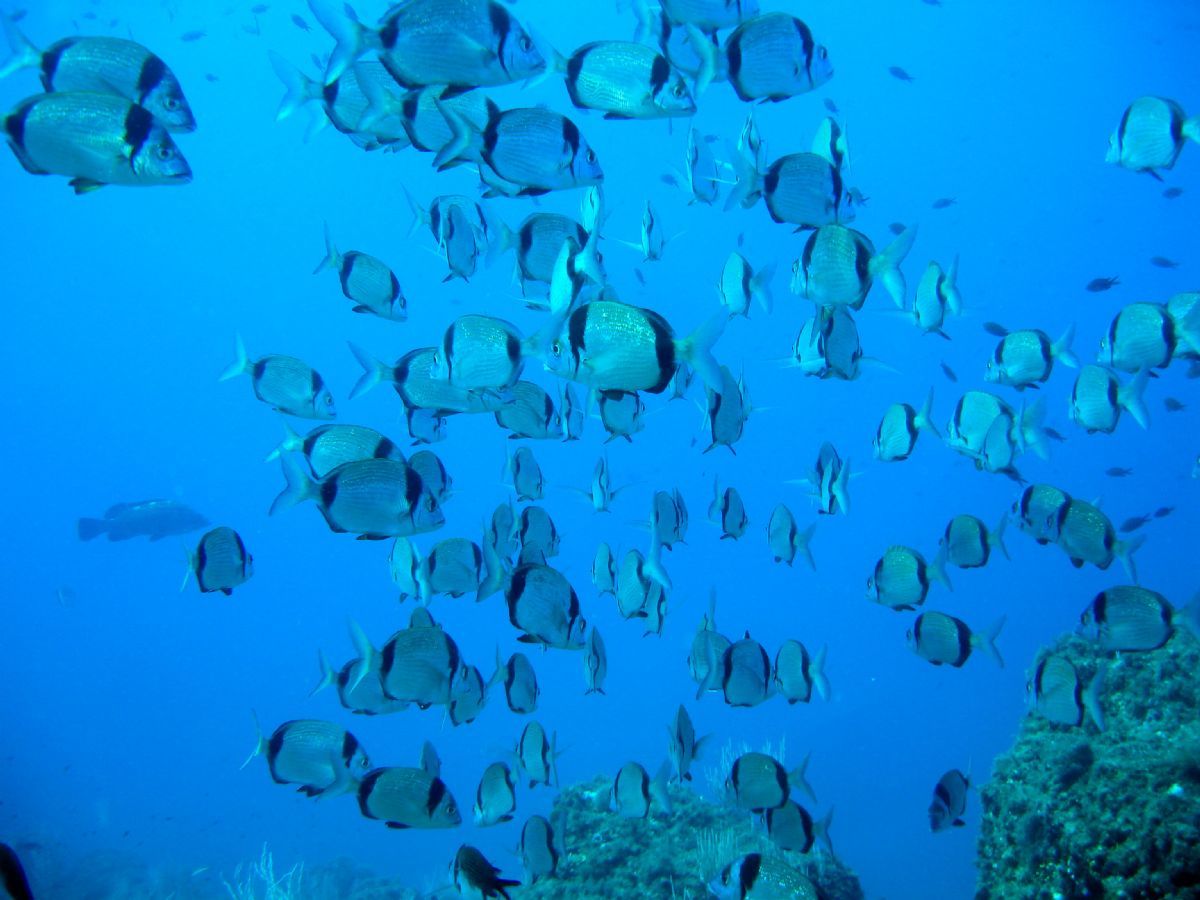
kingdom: Animalia
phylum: Chordata
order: Perciformes
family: Sparidae
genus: Diplodus
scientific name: Diplodus vulgaris
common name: Common two-banded seabream
